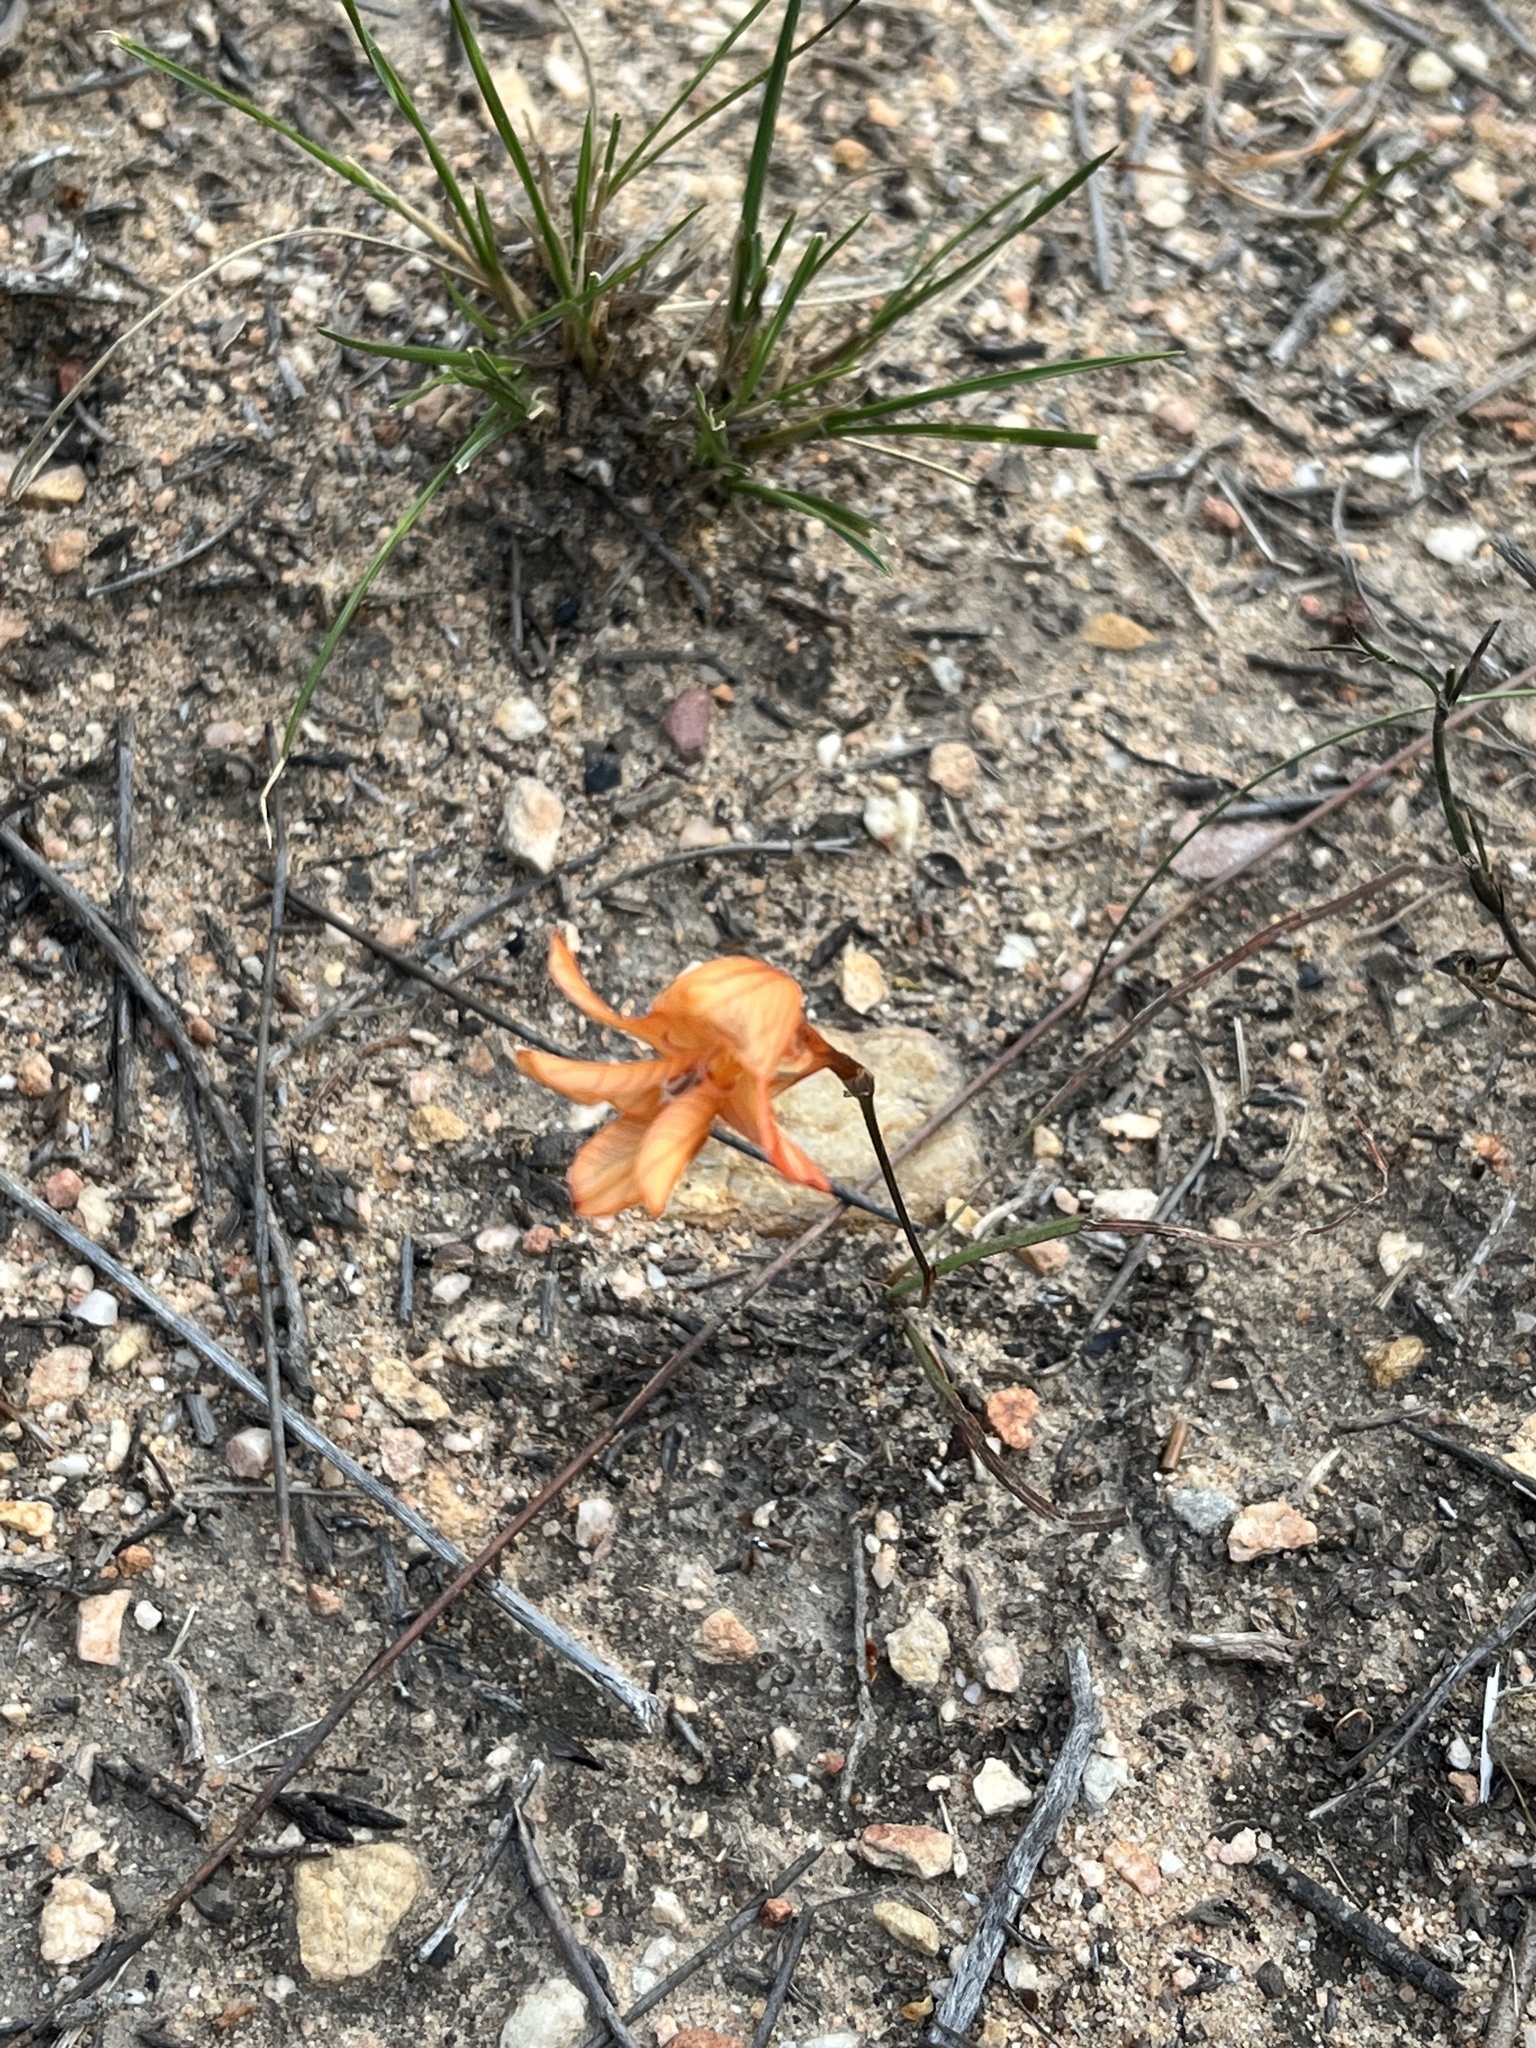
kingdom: Plantae
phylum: Tracheophyta
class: Liliopsida
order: Asparagales
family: Iridaceae
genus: Tritonia
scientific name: Tritonia securigera
